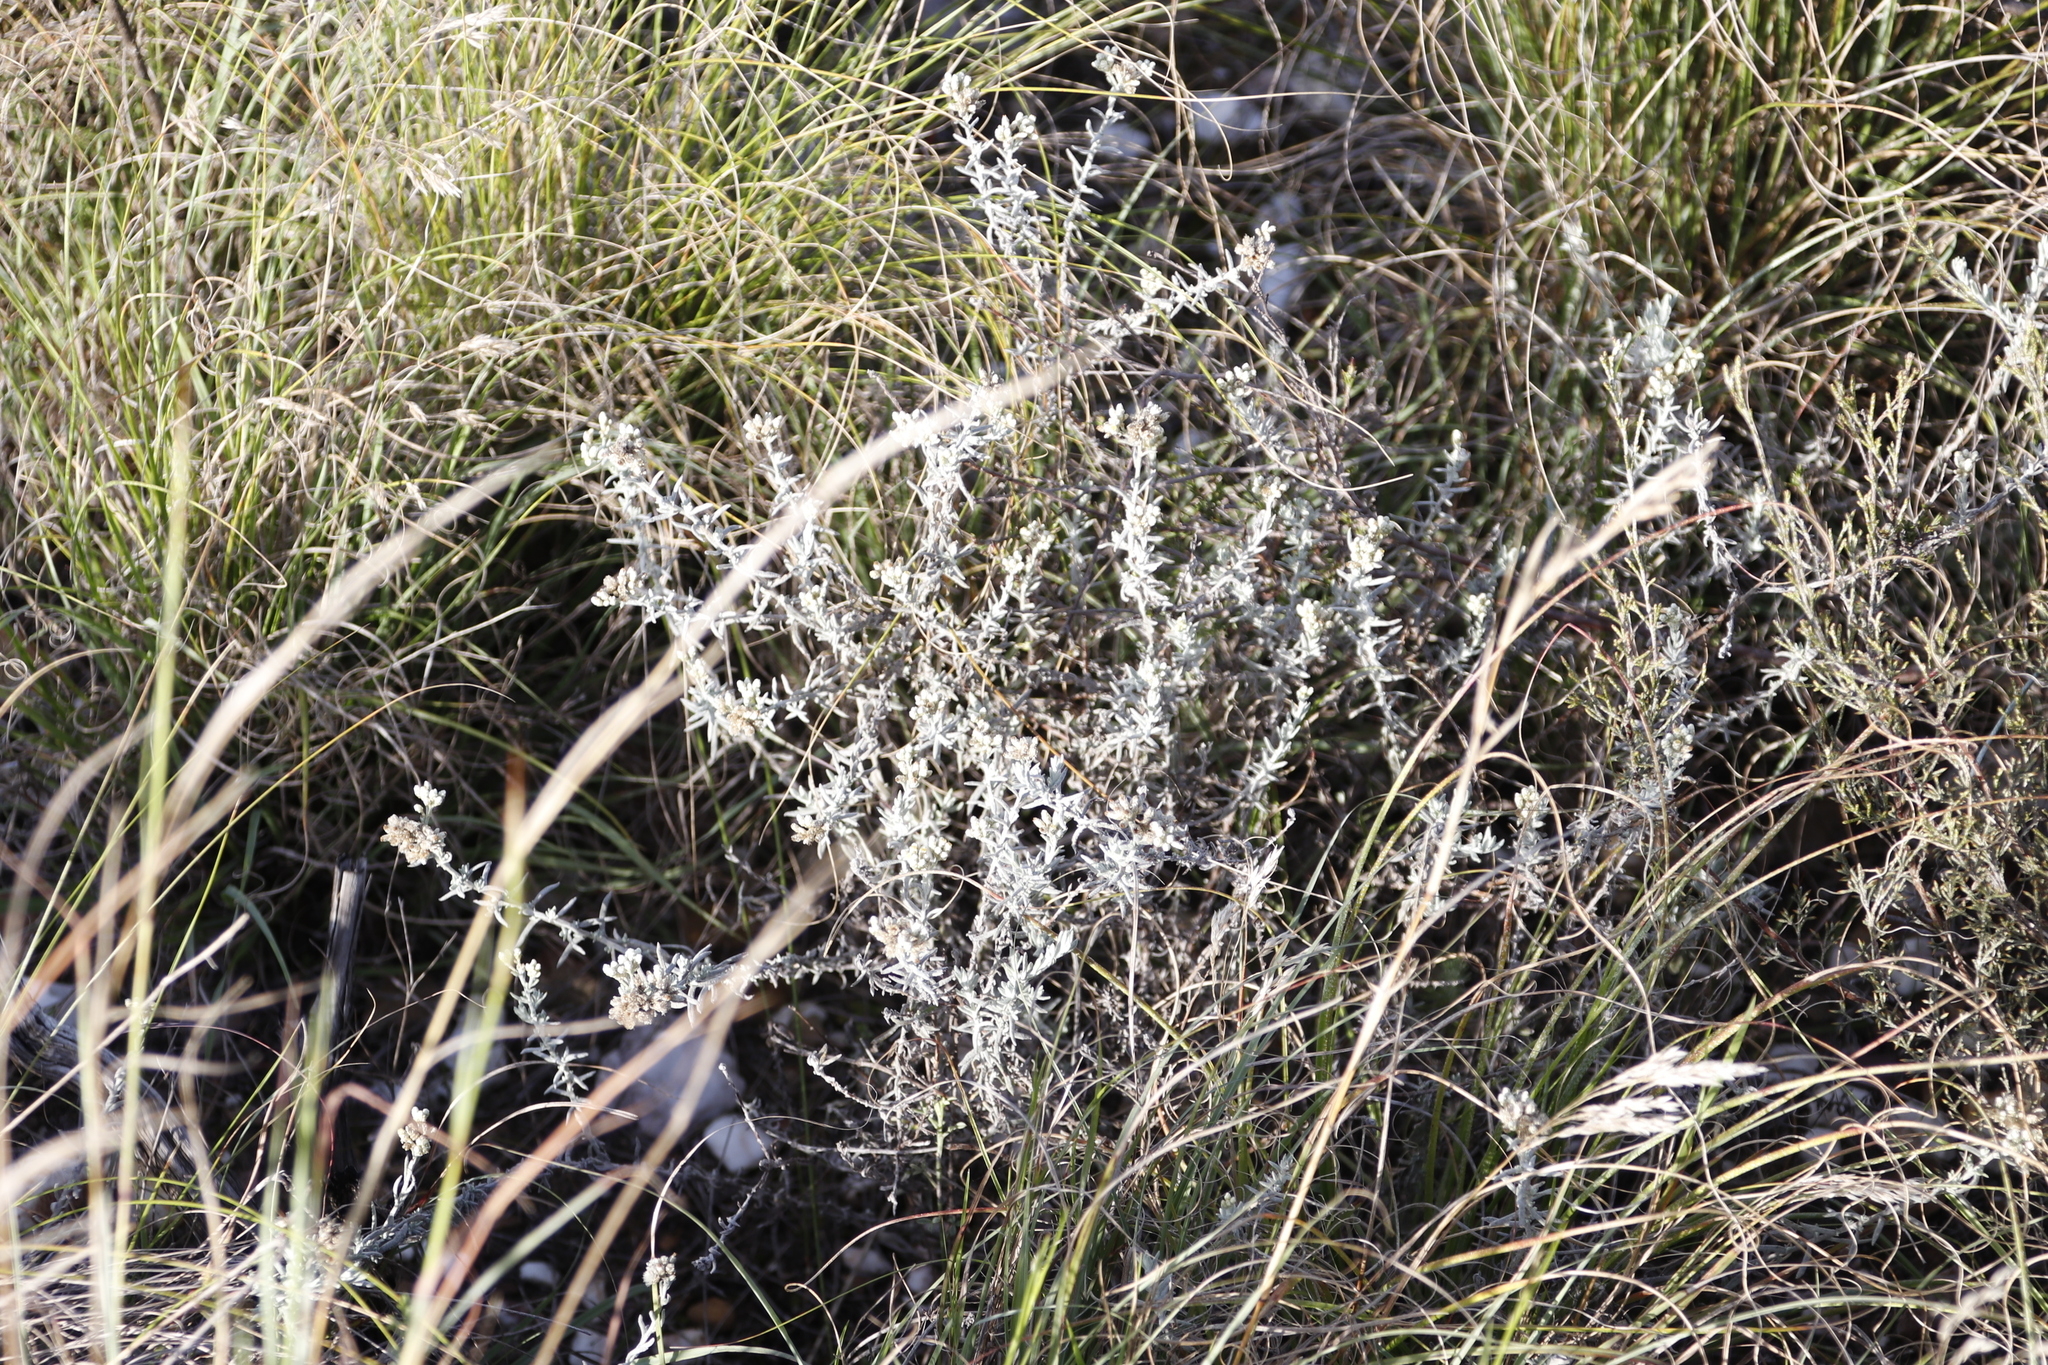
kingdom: Plantae
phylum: Tracheophyta
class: Magnoliopsida
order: Asterales
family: Asteraceae
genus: Helichrysum
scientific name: Helichrysum rosum
